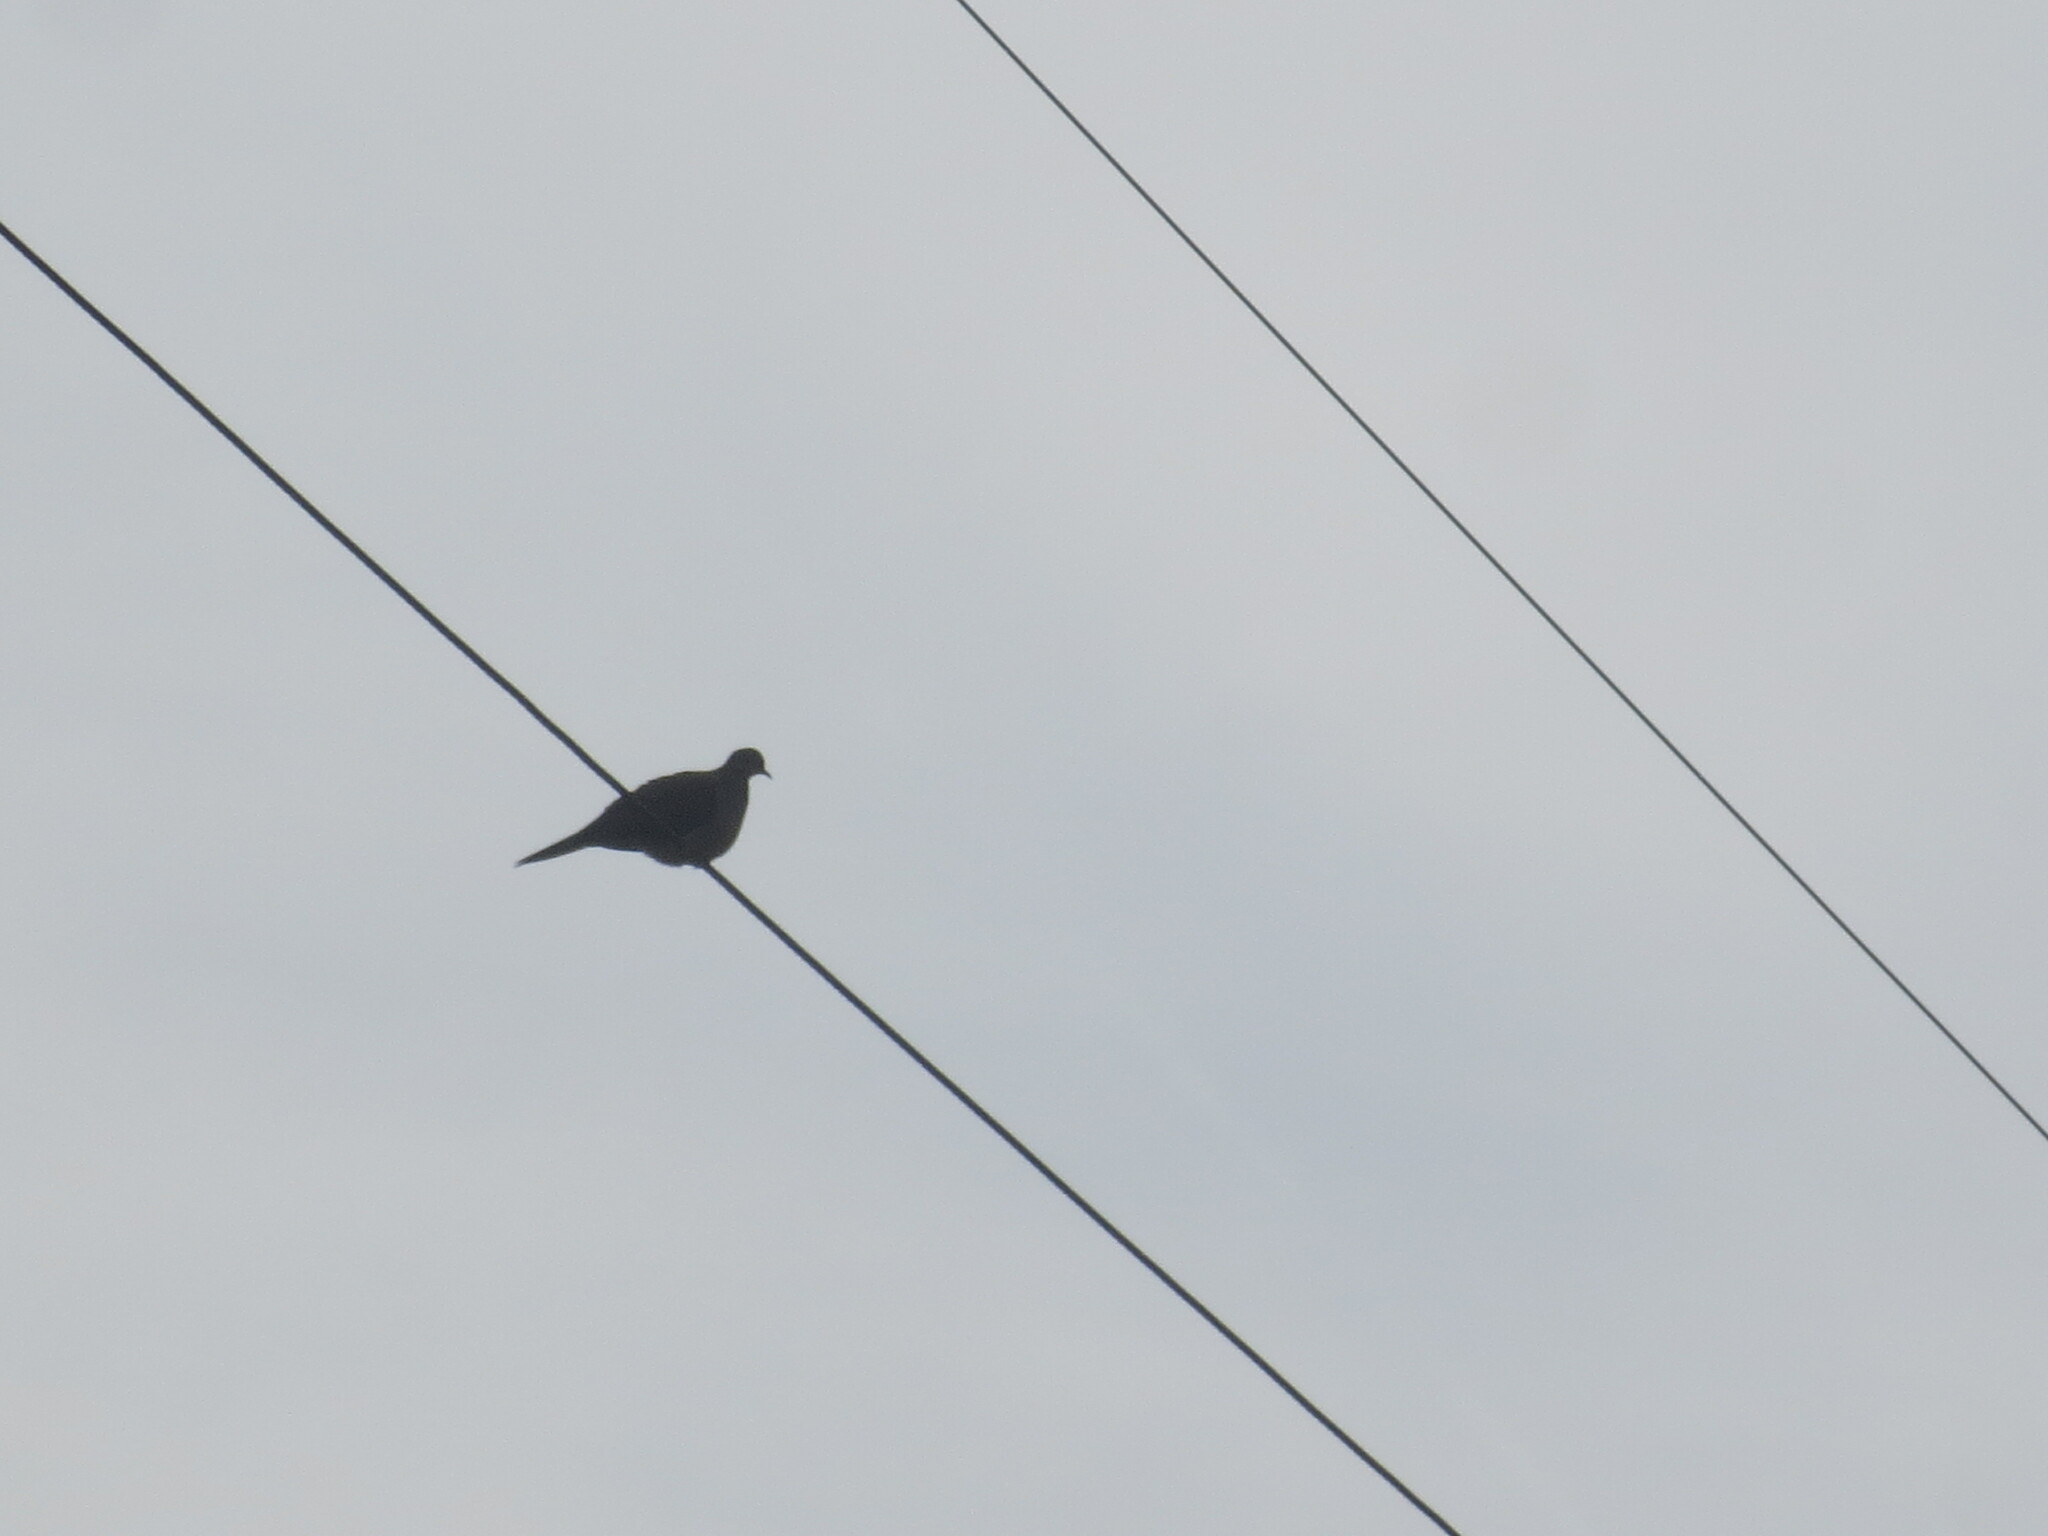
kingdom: Animalia
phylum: Chordata
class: Aves
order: Columbiformes
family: Columbidae
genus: Zenaida
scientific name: Zenaida macroura
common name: Mourning dove
